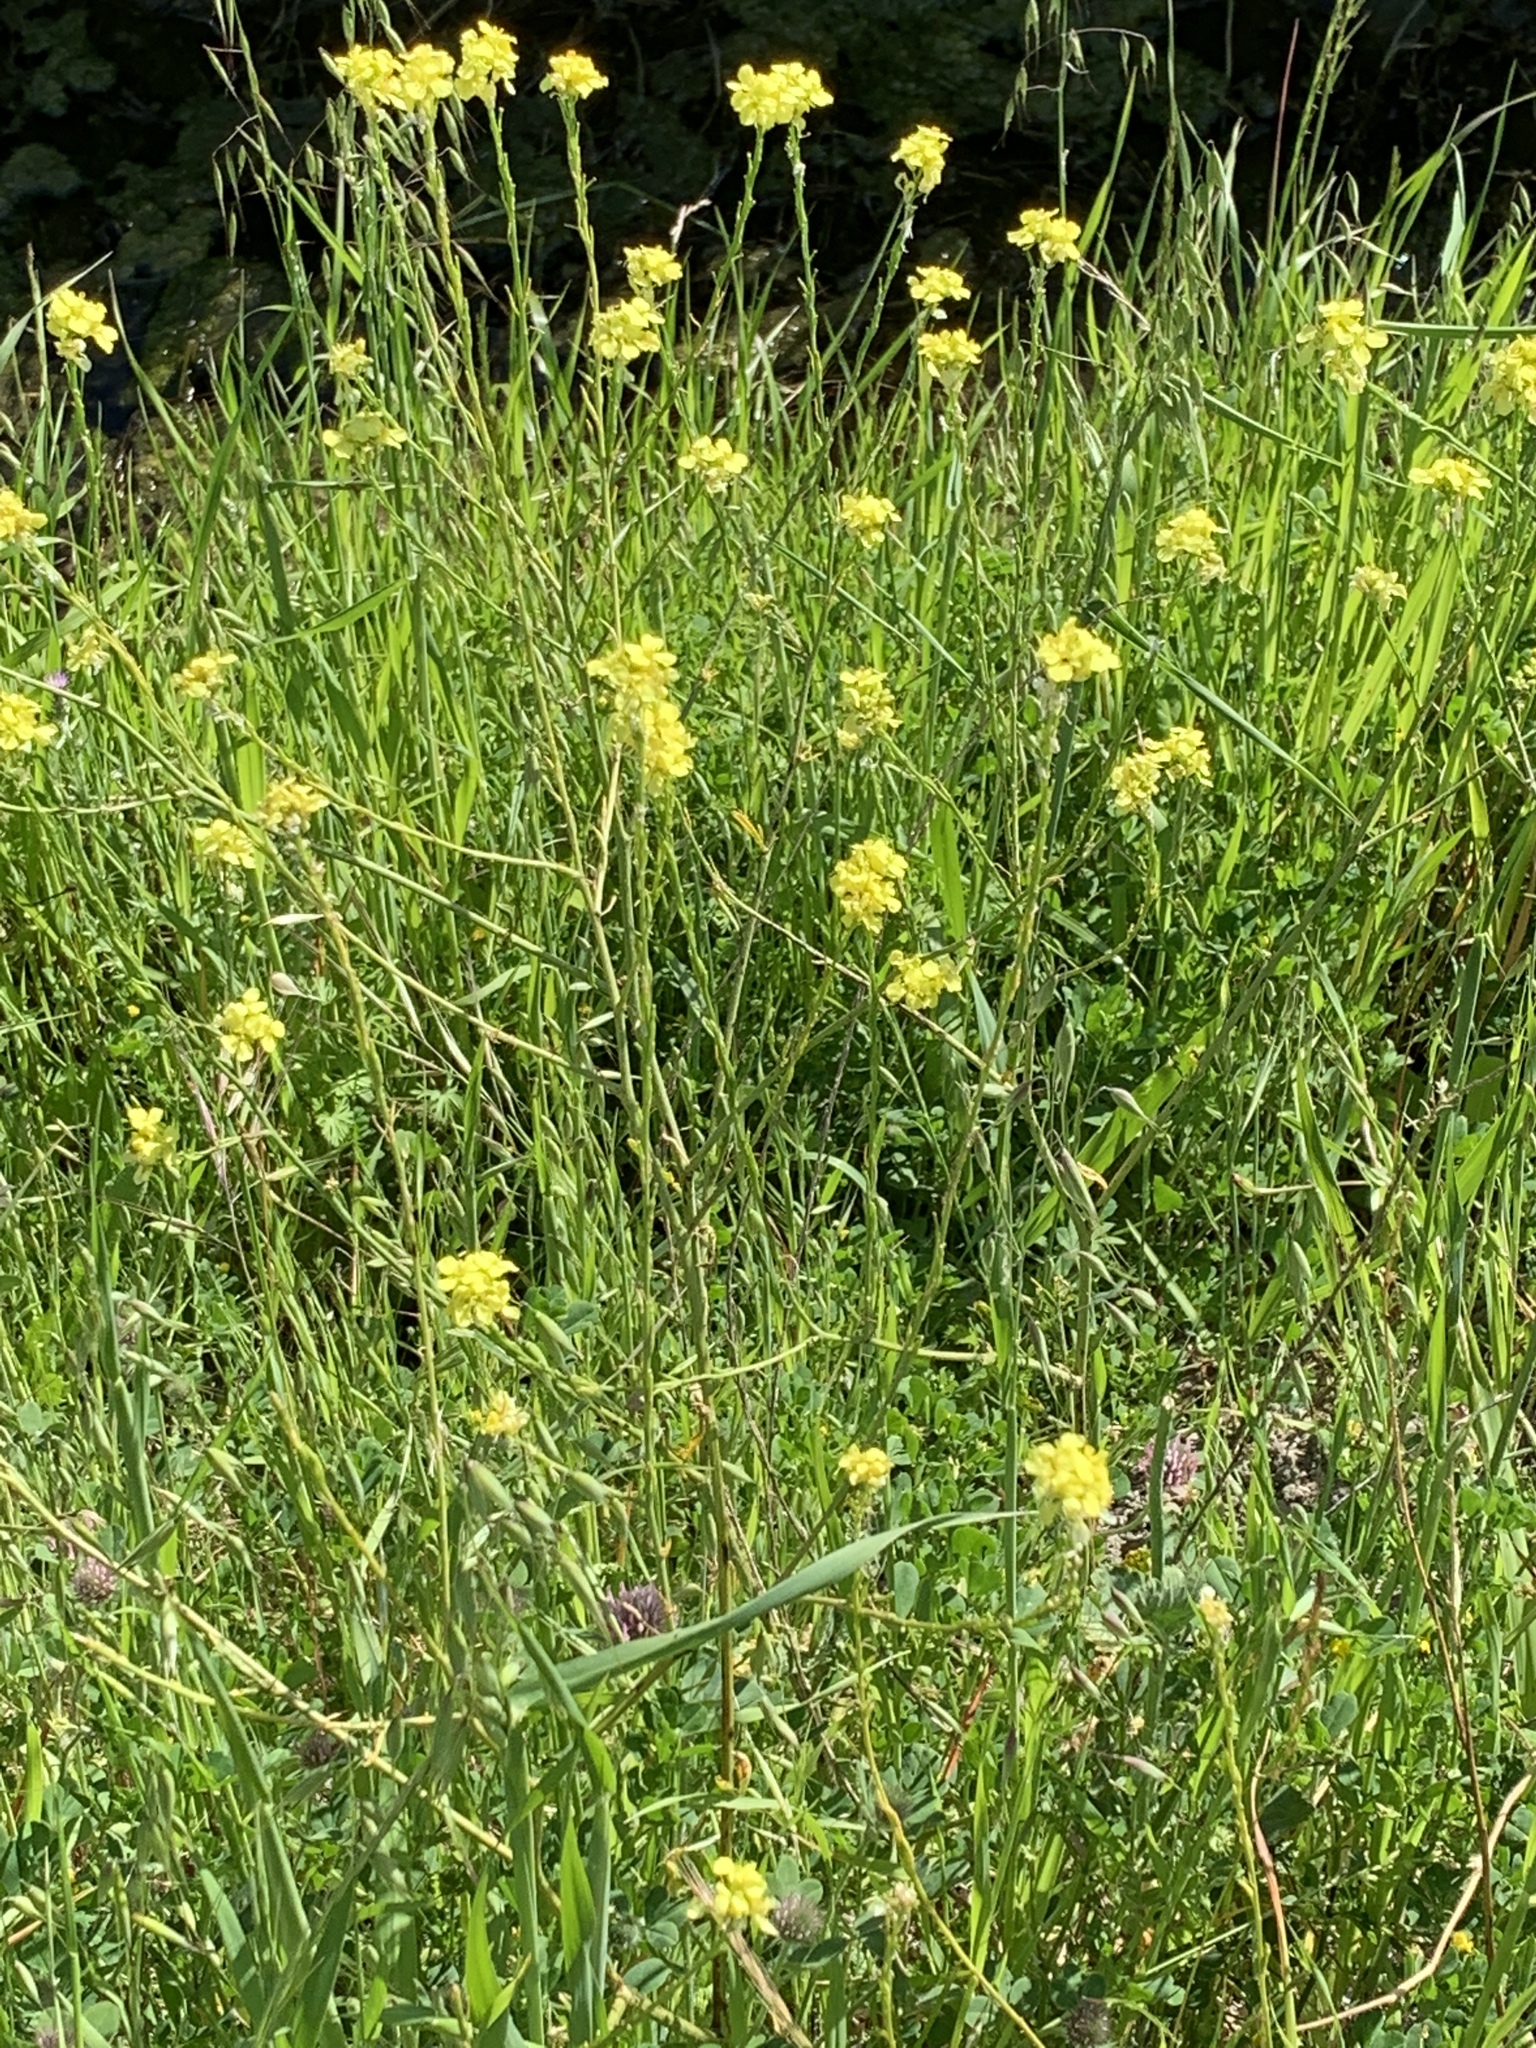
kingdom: Plantae
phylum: Tracheophyta
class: Magnoliopsida
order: Brassicales
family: Brassicaceae
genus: Hirschfeldia
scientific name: Hirschfeldia incana
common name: Hoary mustard
